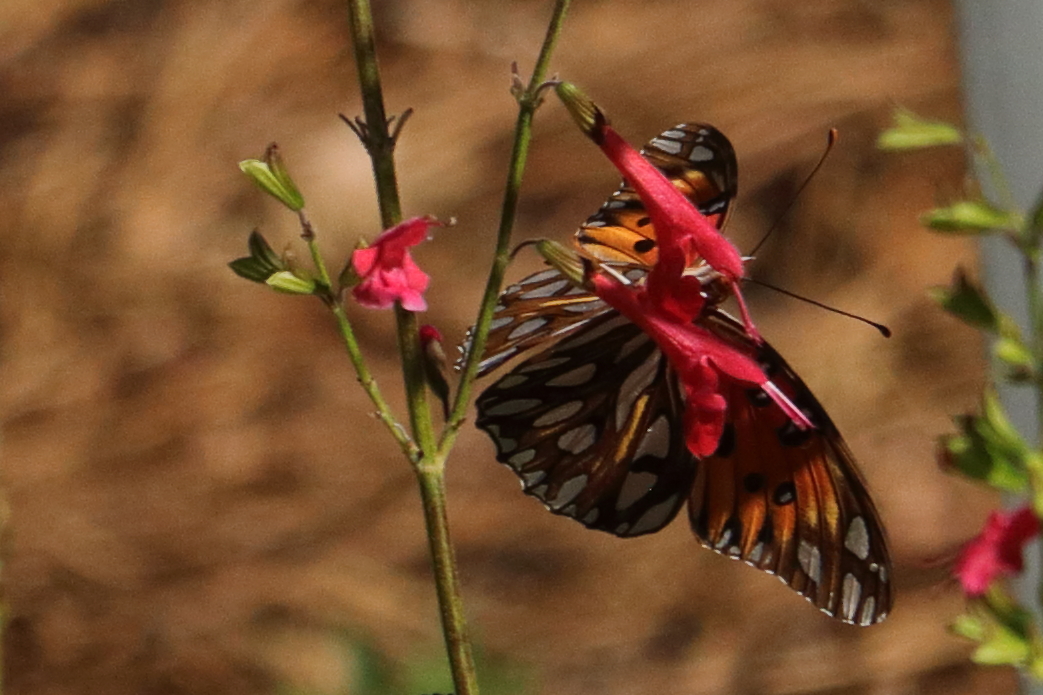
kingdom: Animalia
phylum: Arthropoda
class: Insecta
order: Lepidoptera
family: Nymphalidae
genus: Dione
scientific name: Dione vanillae
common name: Gulf fritillary
